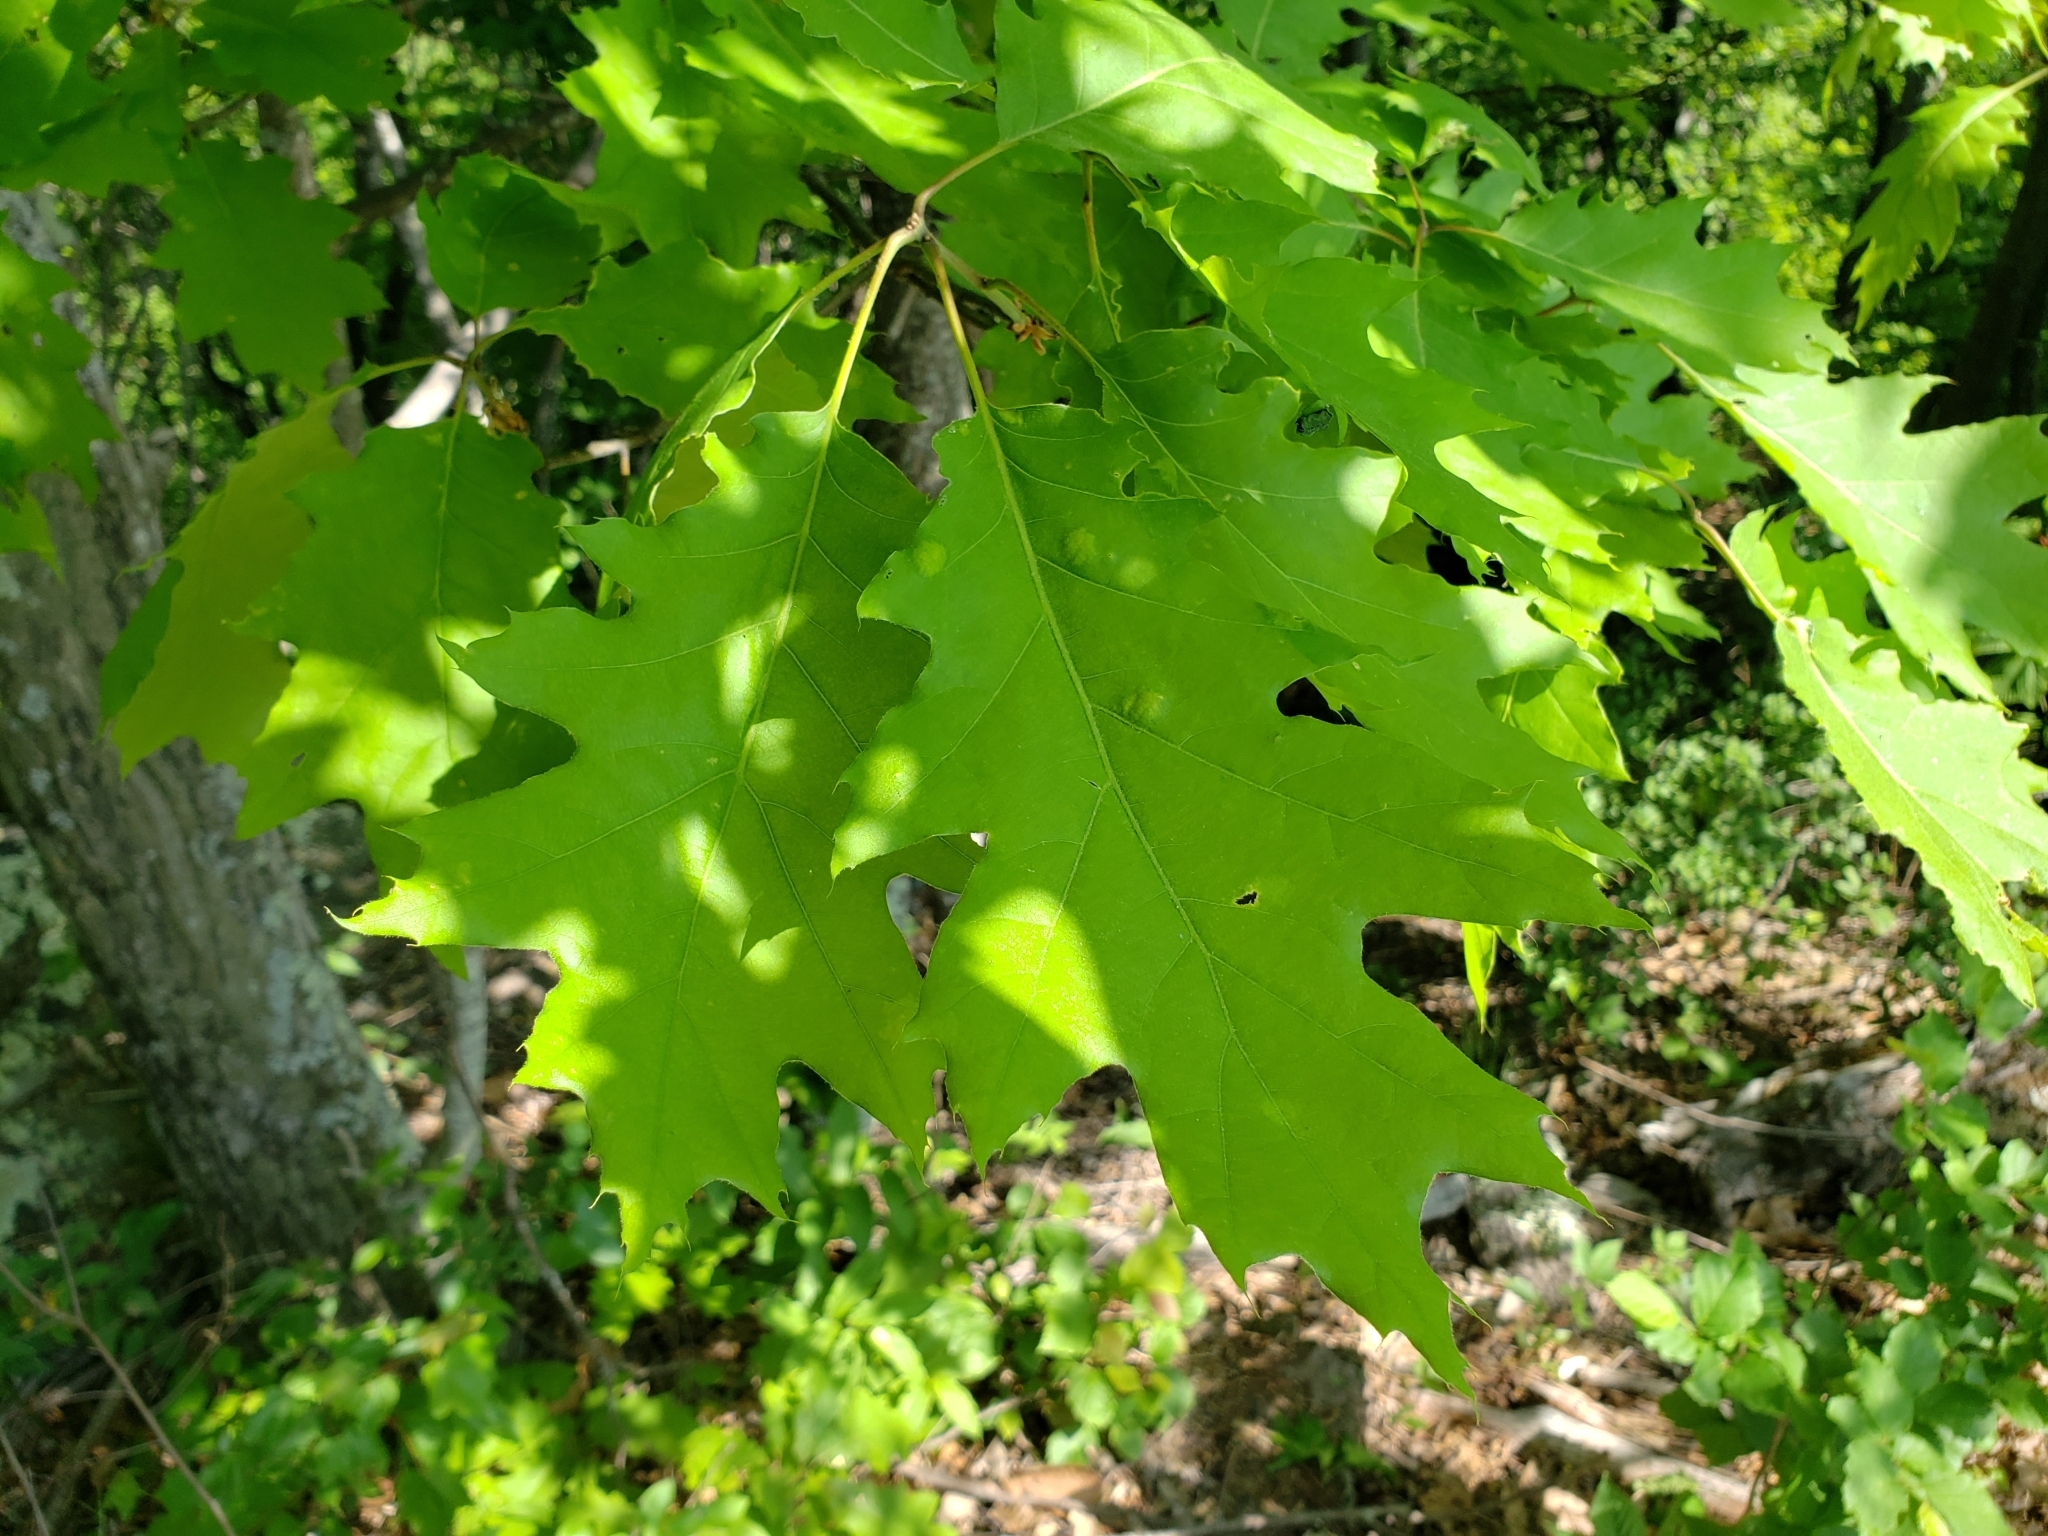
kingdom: Plantae
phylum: Tracheophyta
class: Magnoliopsida
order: Fagales
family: Fagaceae
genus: Quercus
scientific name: Quercus rubra
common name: Red oak
